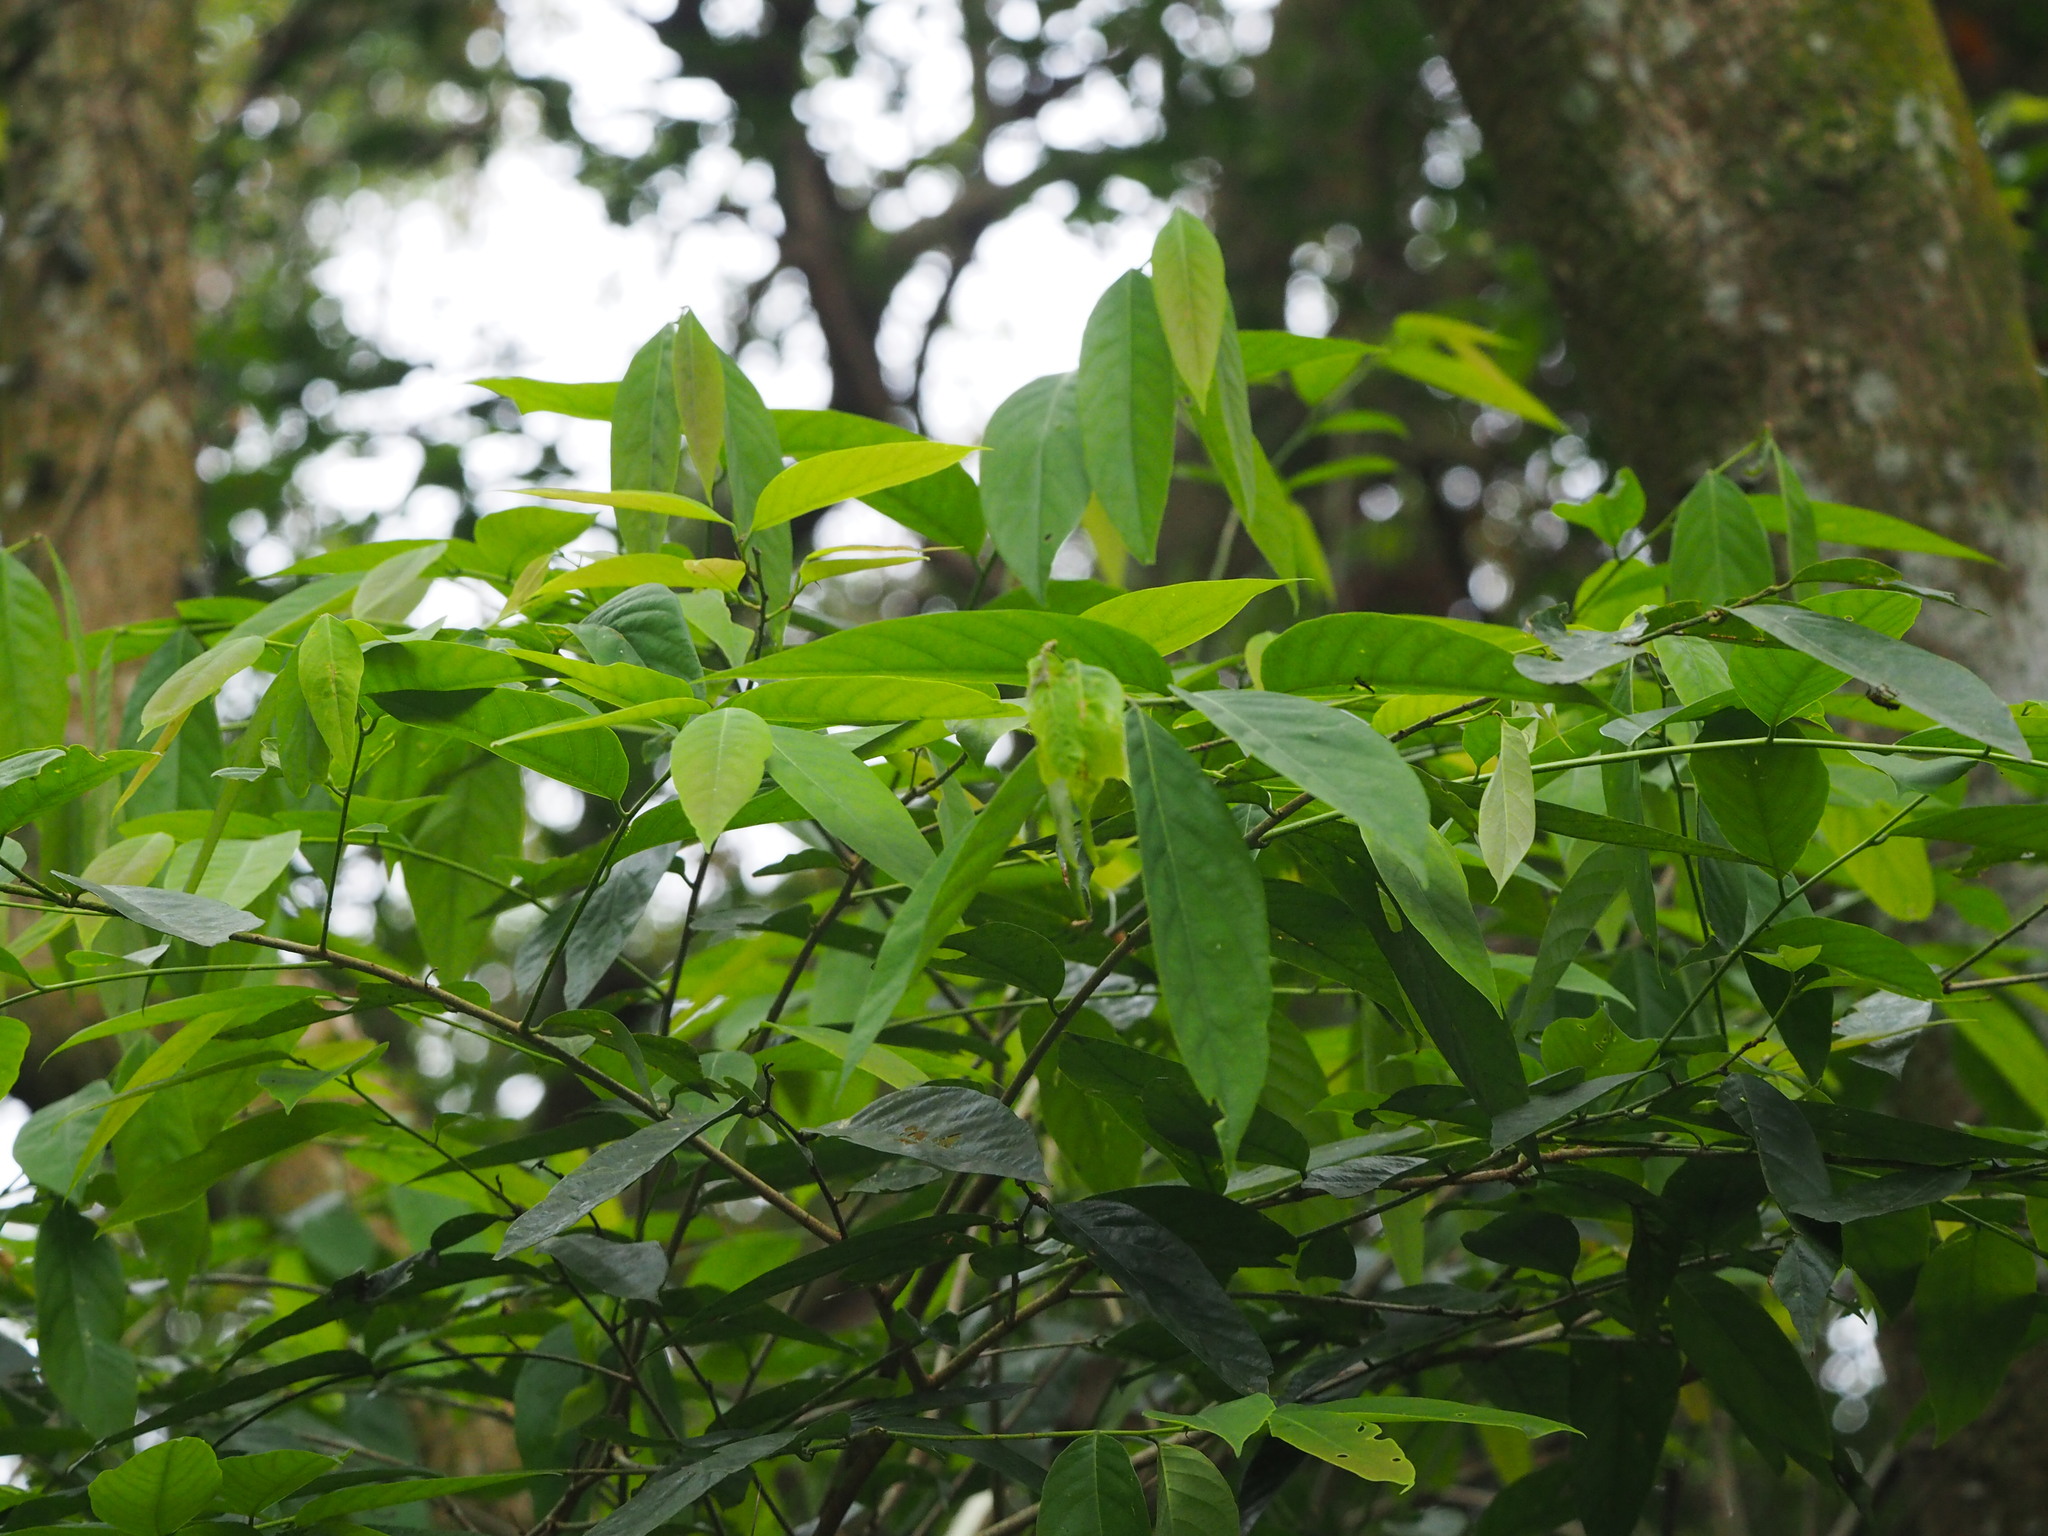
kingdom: Plantae
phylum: Tracheophyta
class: Magnoliopsida
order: Malpighiales
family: Phyllanthaceae
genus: Bridelia
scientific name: Bridelia balansae
